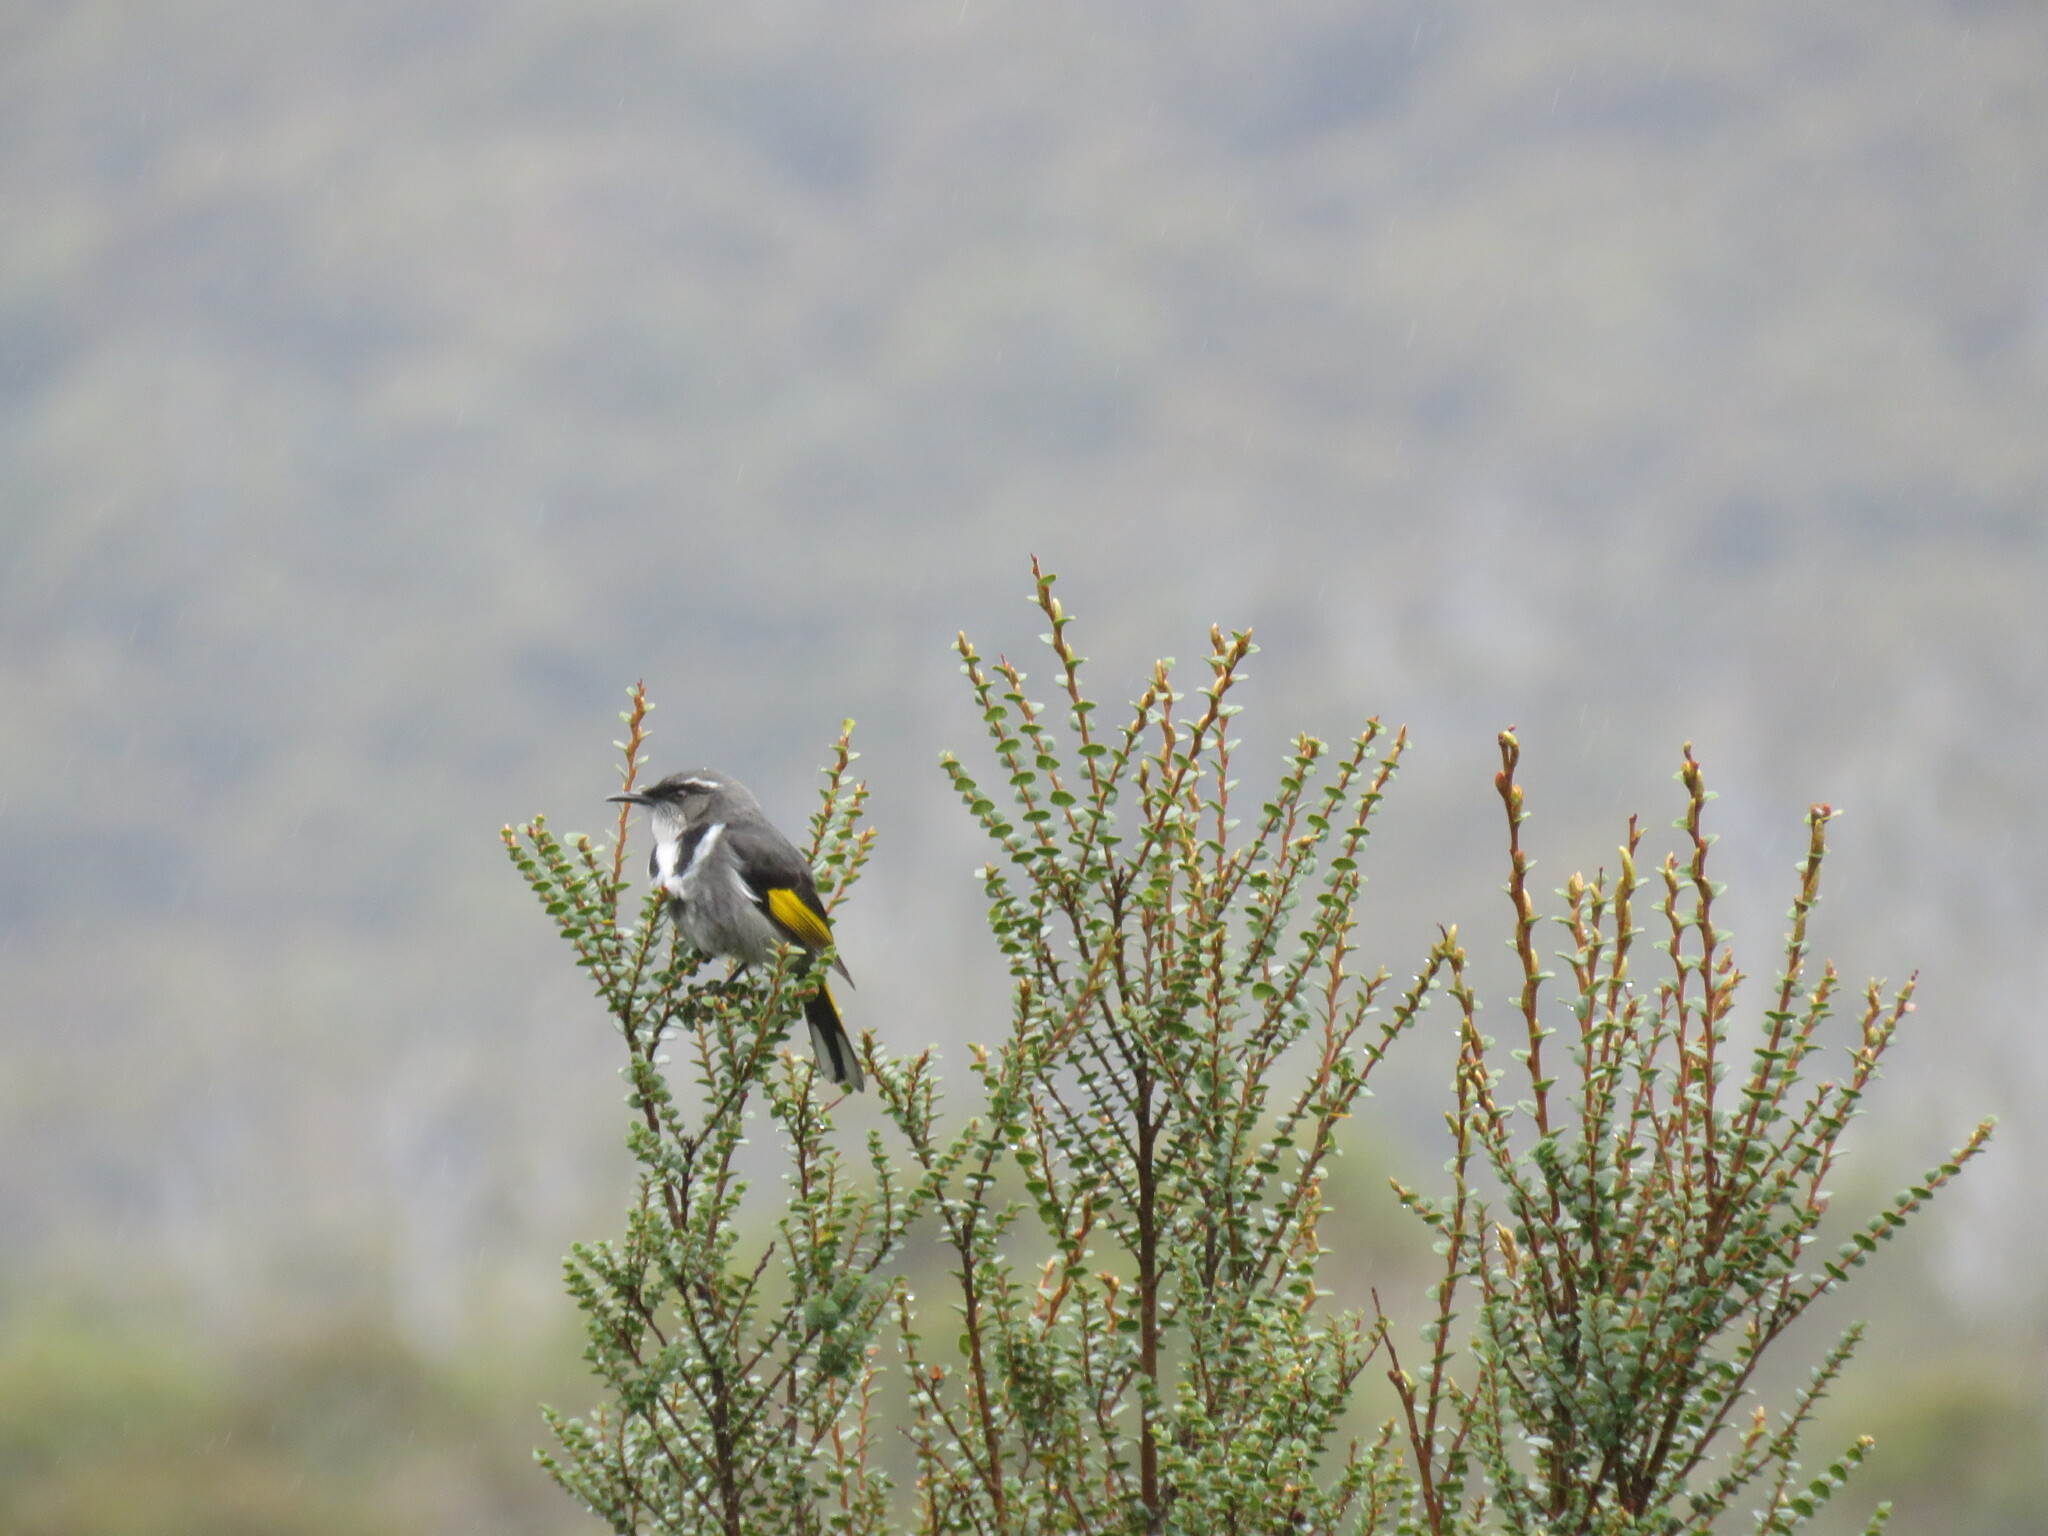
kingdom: Animalia
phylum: Chordata
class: Aves
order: Passeriformes
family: Meliphagidae
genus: Phylidonyris
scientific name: Phylidonyris pyrrhopterus
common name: Crescent honeyeater
